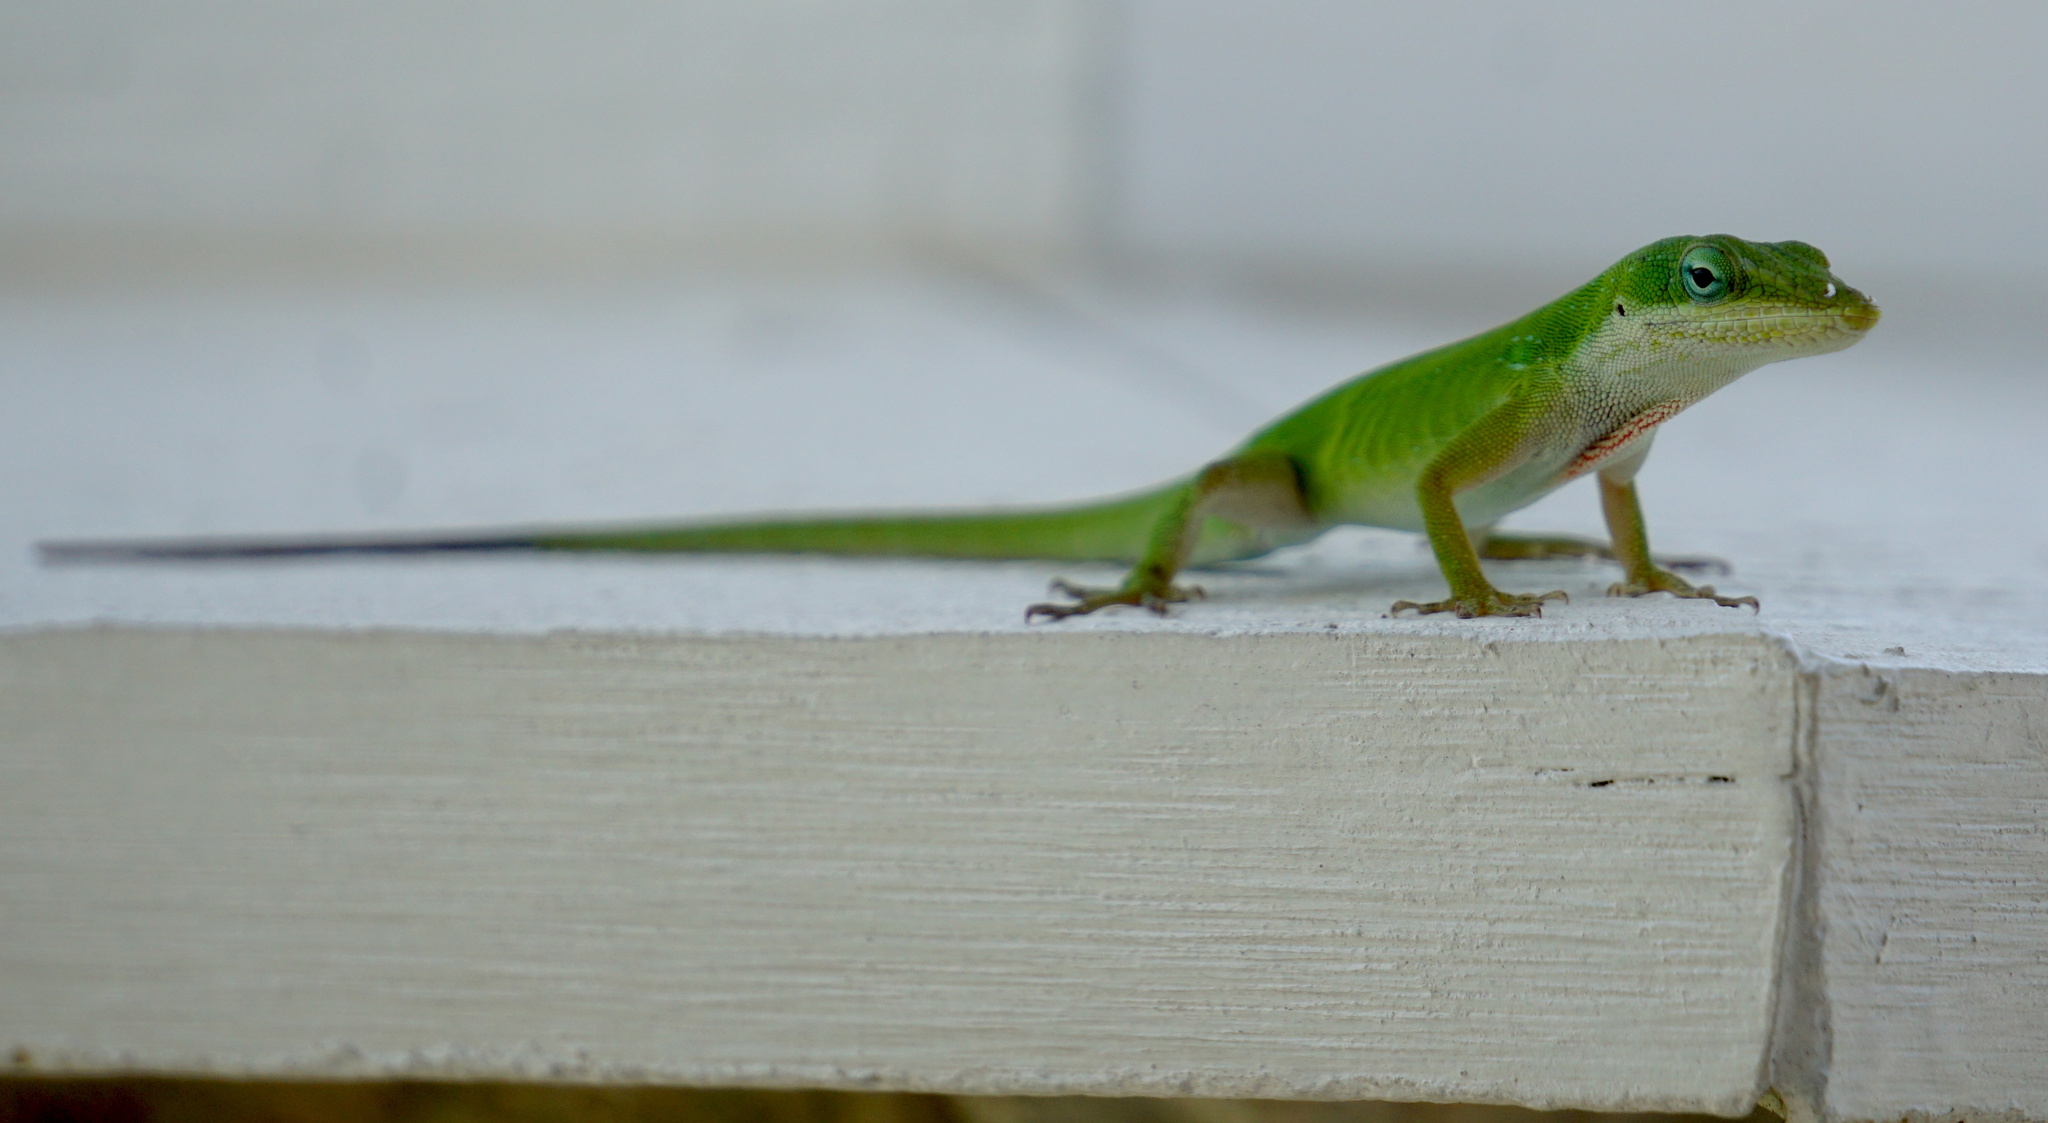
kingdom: Animalia
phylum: Chordata
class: Squamata
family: Dactyloidae
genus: Anolis
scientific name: Anolis carolinensis
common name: Green anole
